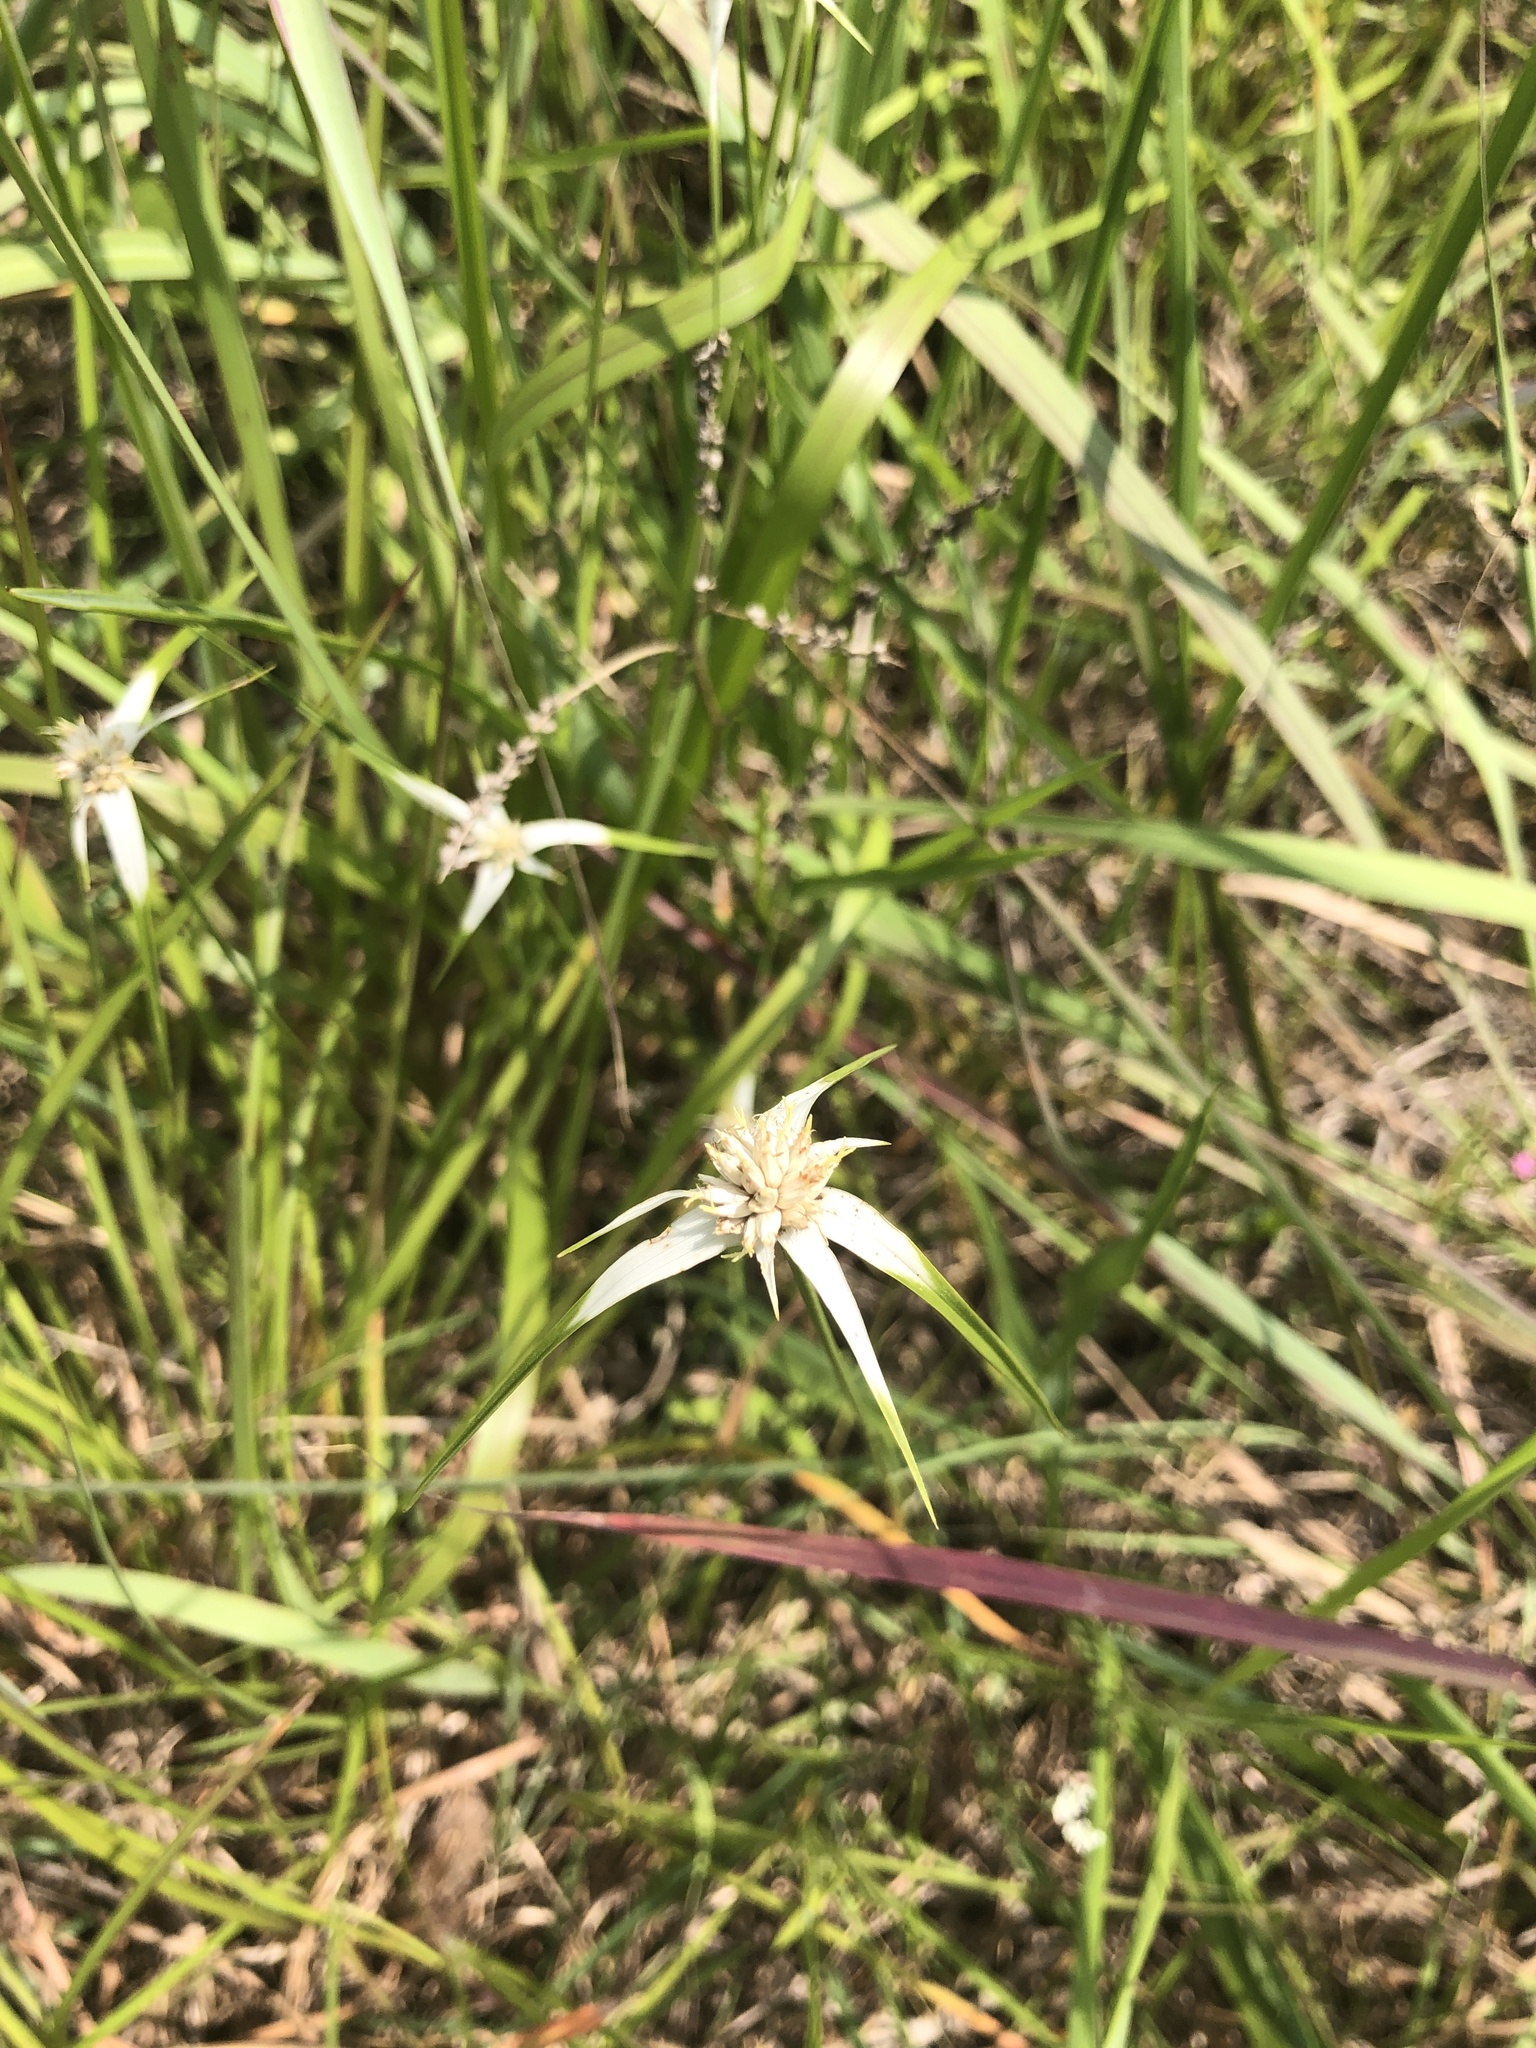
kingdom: Plantae
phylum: Tracheophyta
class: Liliopsida
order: Poales
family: Cyperaceae
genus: Rhynchospora
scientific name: Rhynchospora colorata
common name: Star sedge
